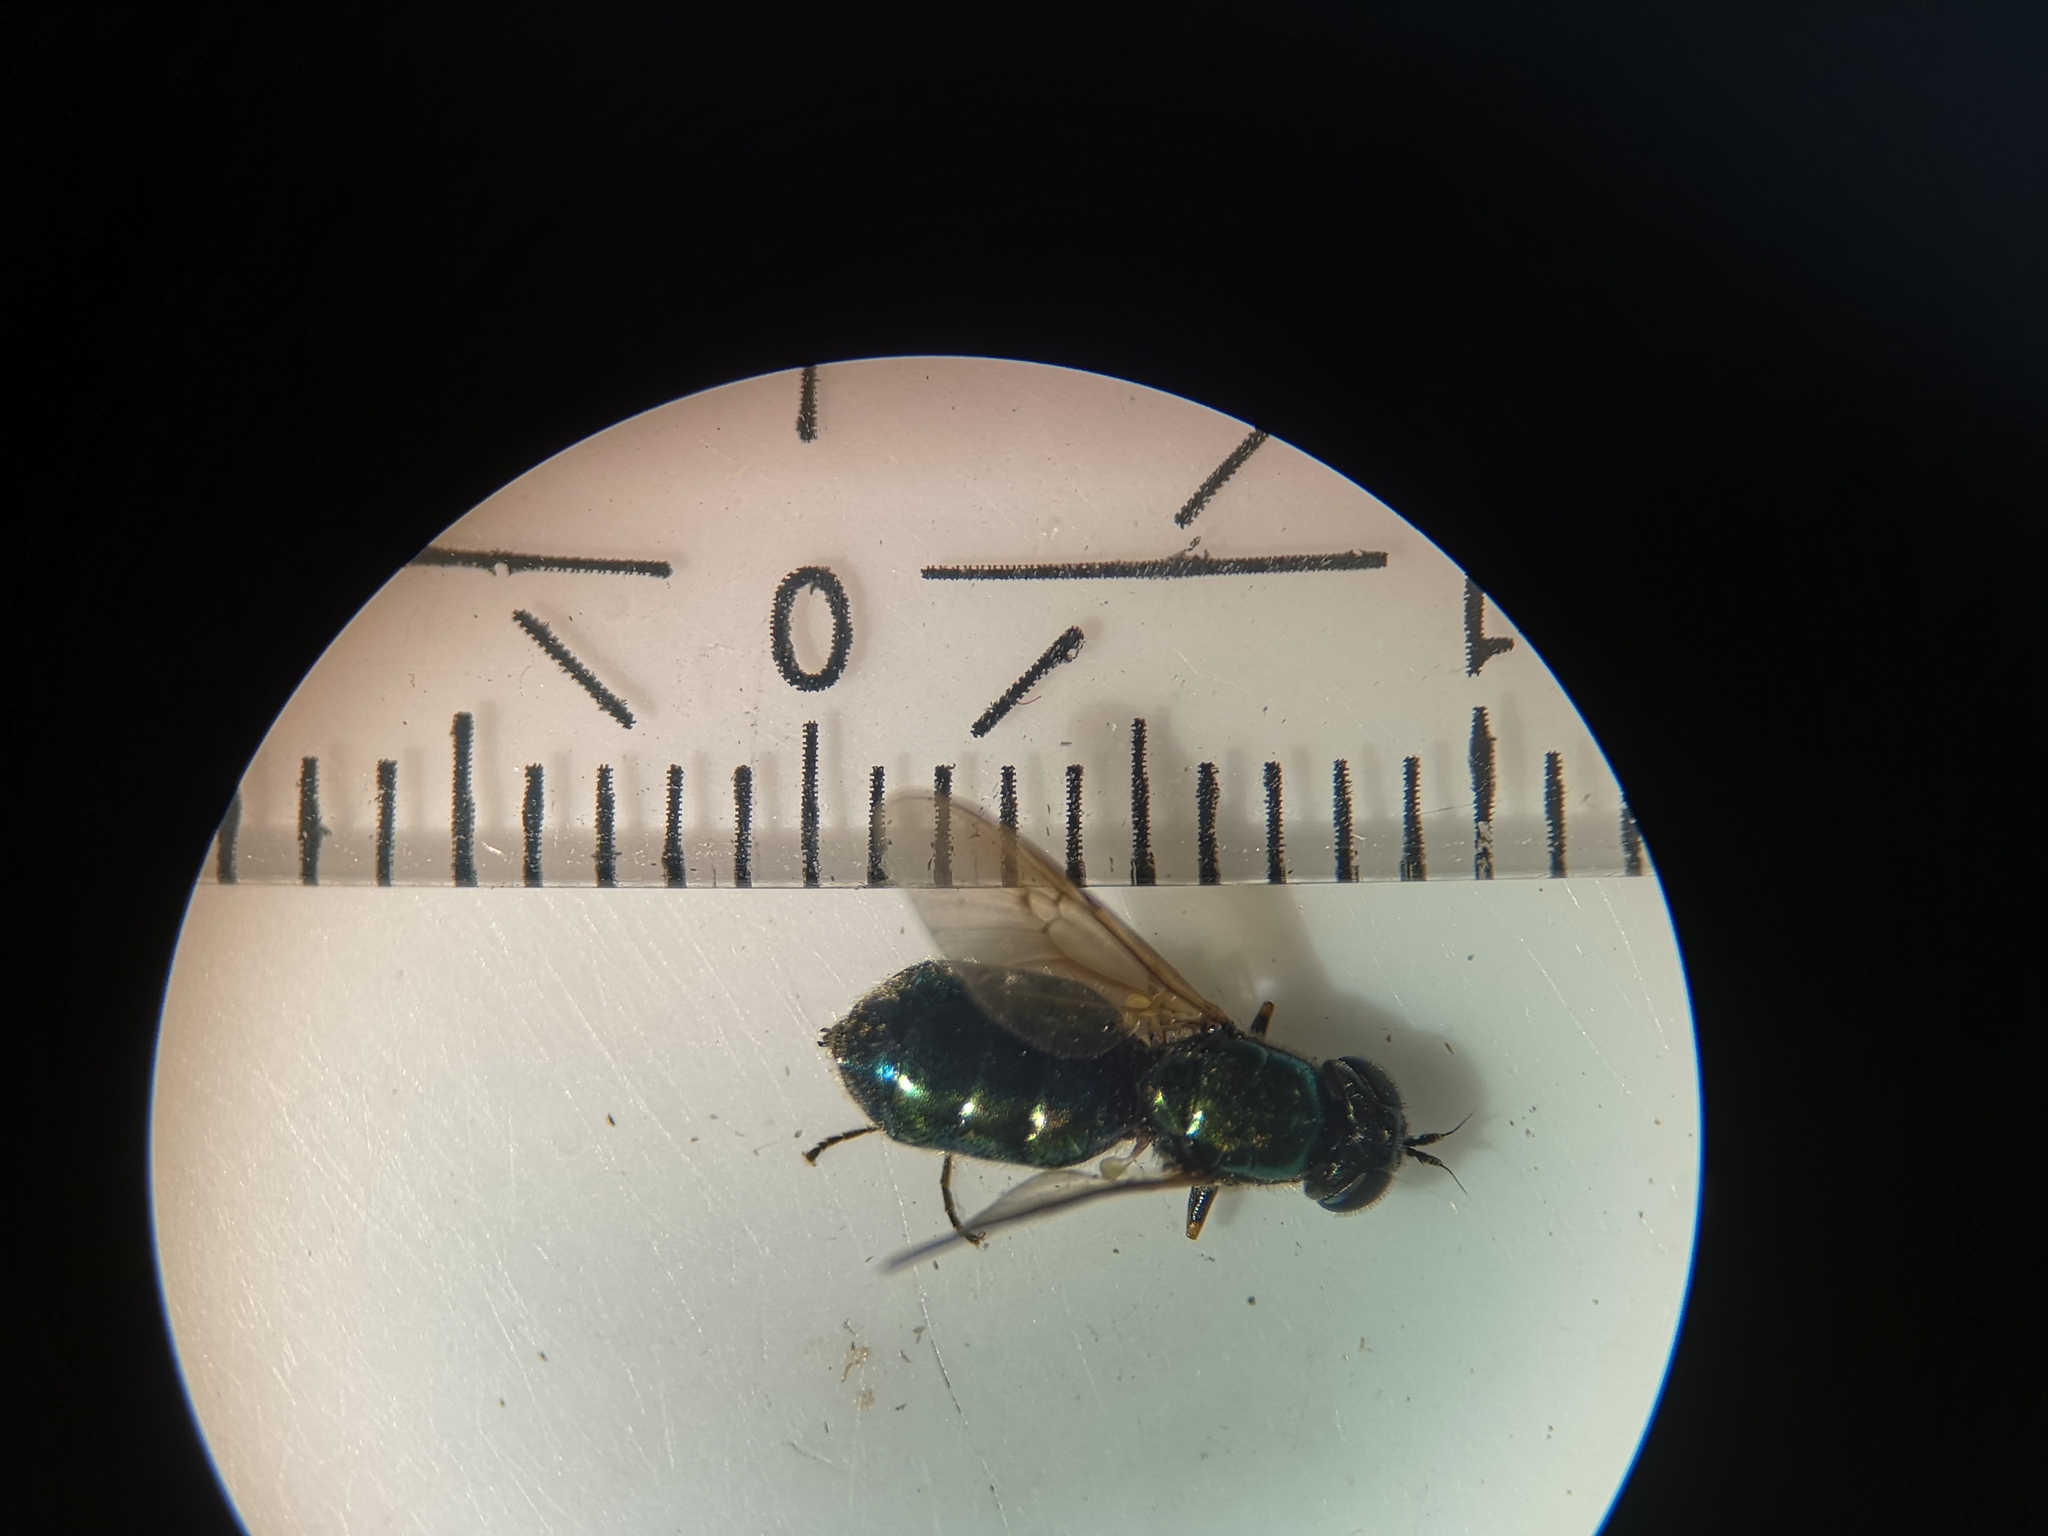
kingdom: Animalia
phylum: Arthropoda
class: Insecta
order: Diptera
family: Stratiomyidae
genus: Chloromyia
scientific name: Chloromyia formosa
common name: Soldier fly
